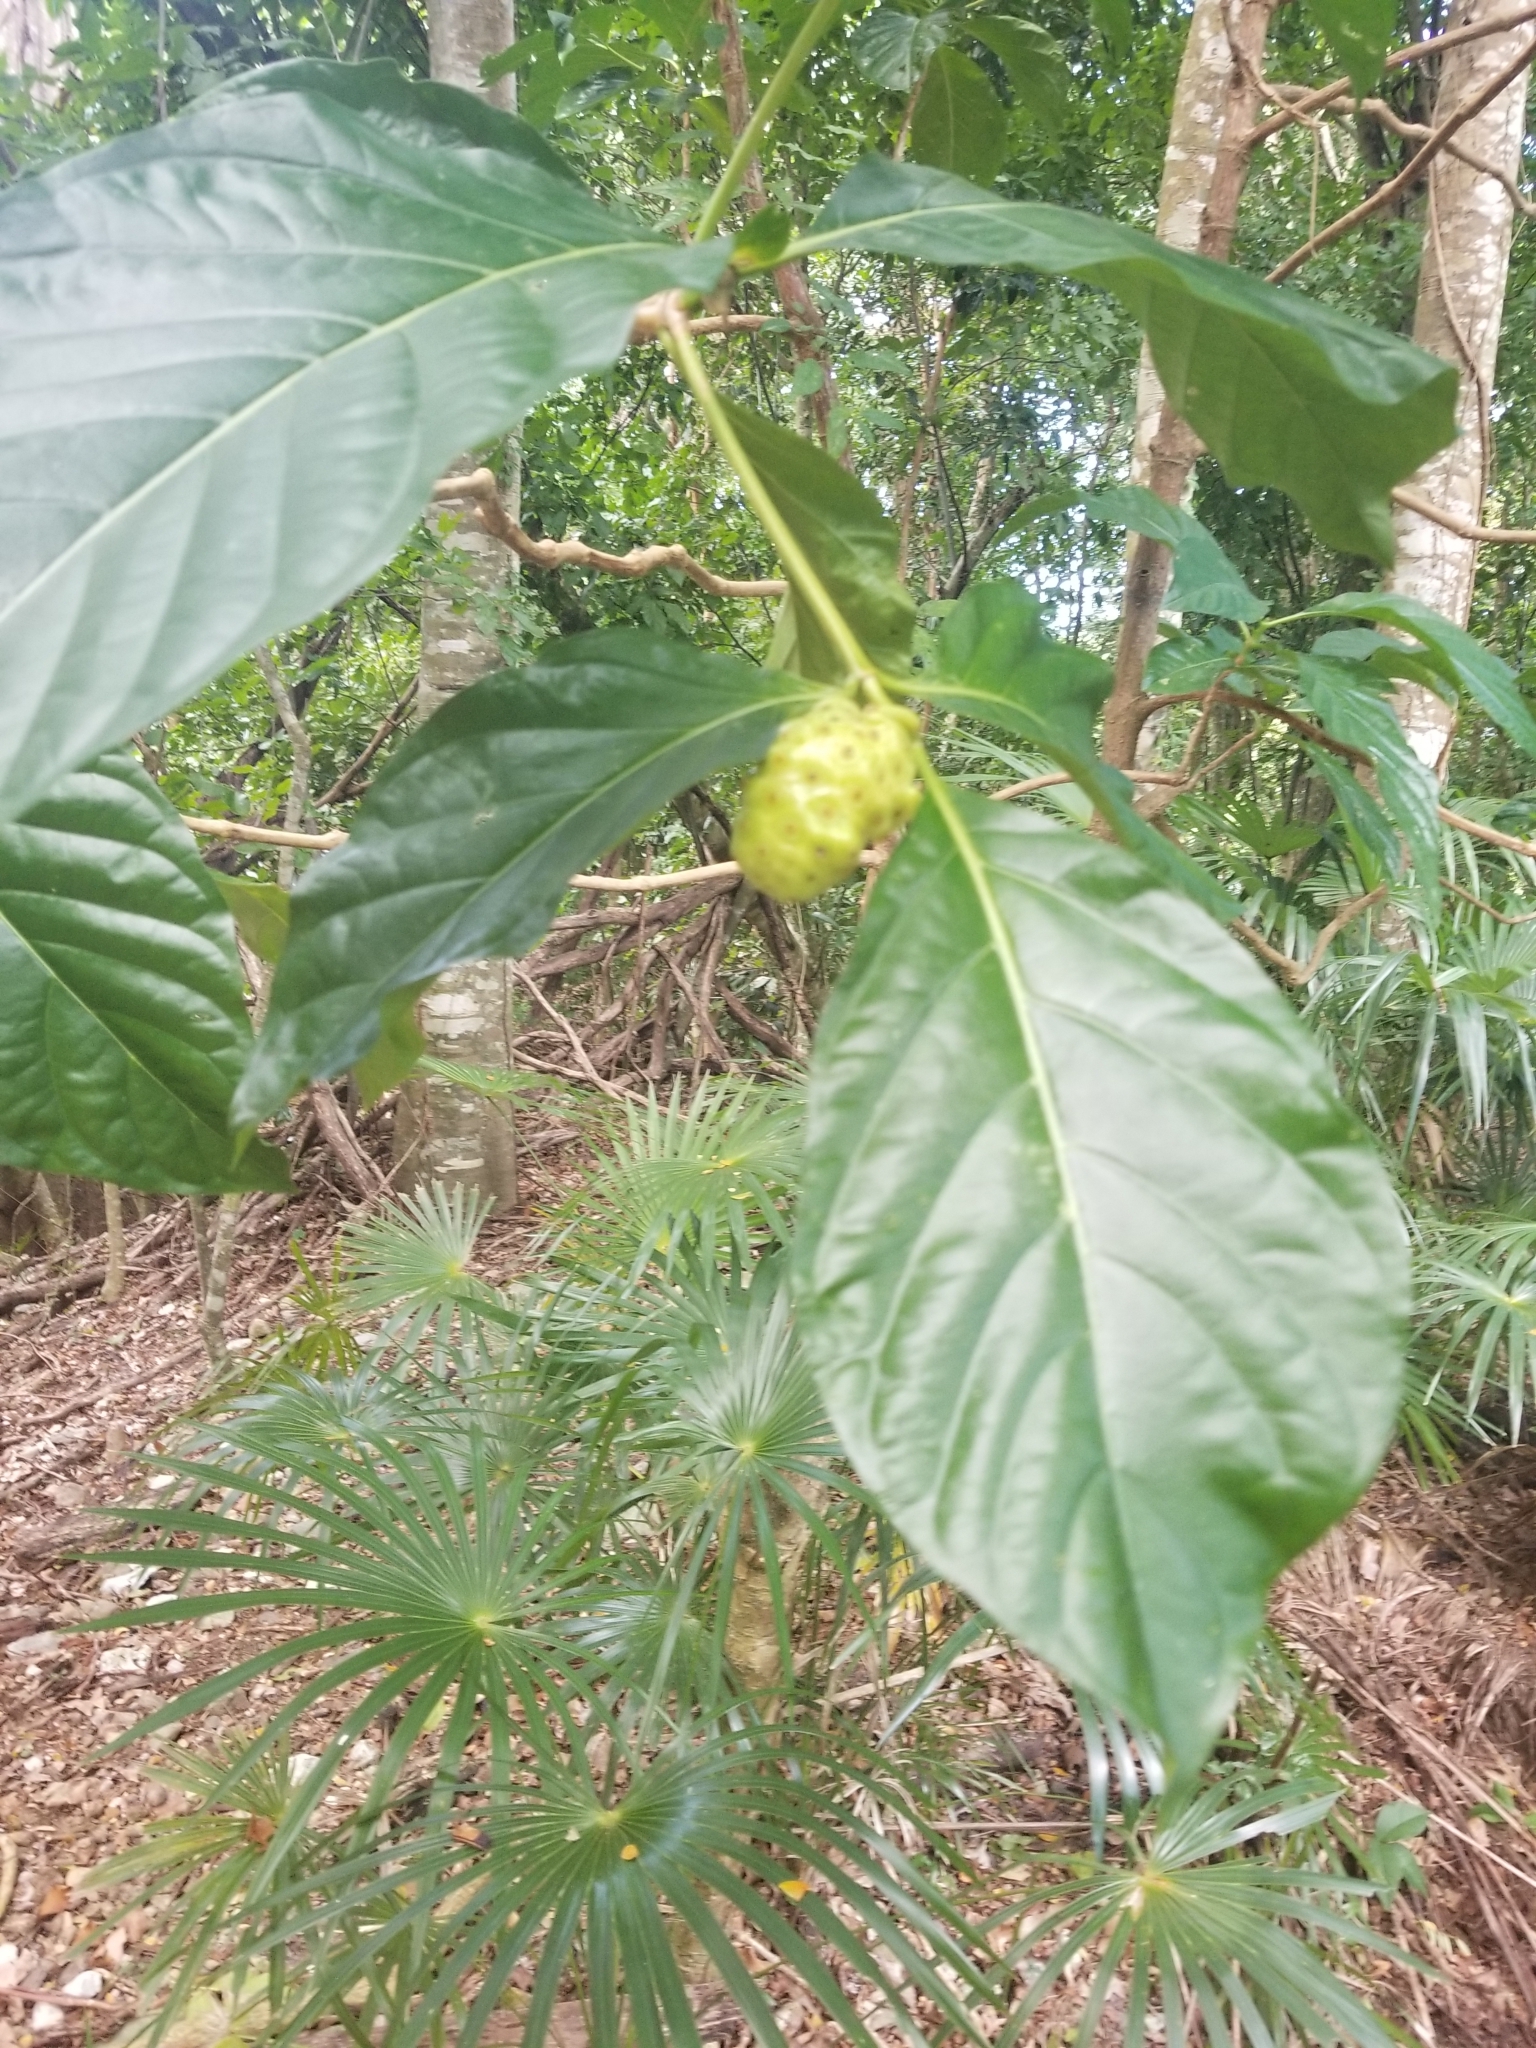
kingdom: Plantae
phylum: Tracheophyta
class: Magnoliopsida
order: Gentianales
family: Rubiaceae
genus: Morinda
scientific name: Morinda citrifolia
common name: Indian-mulberry
